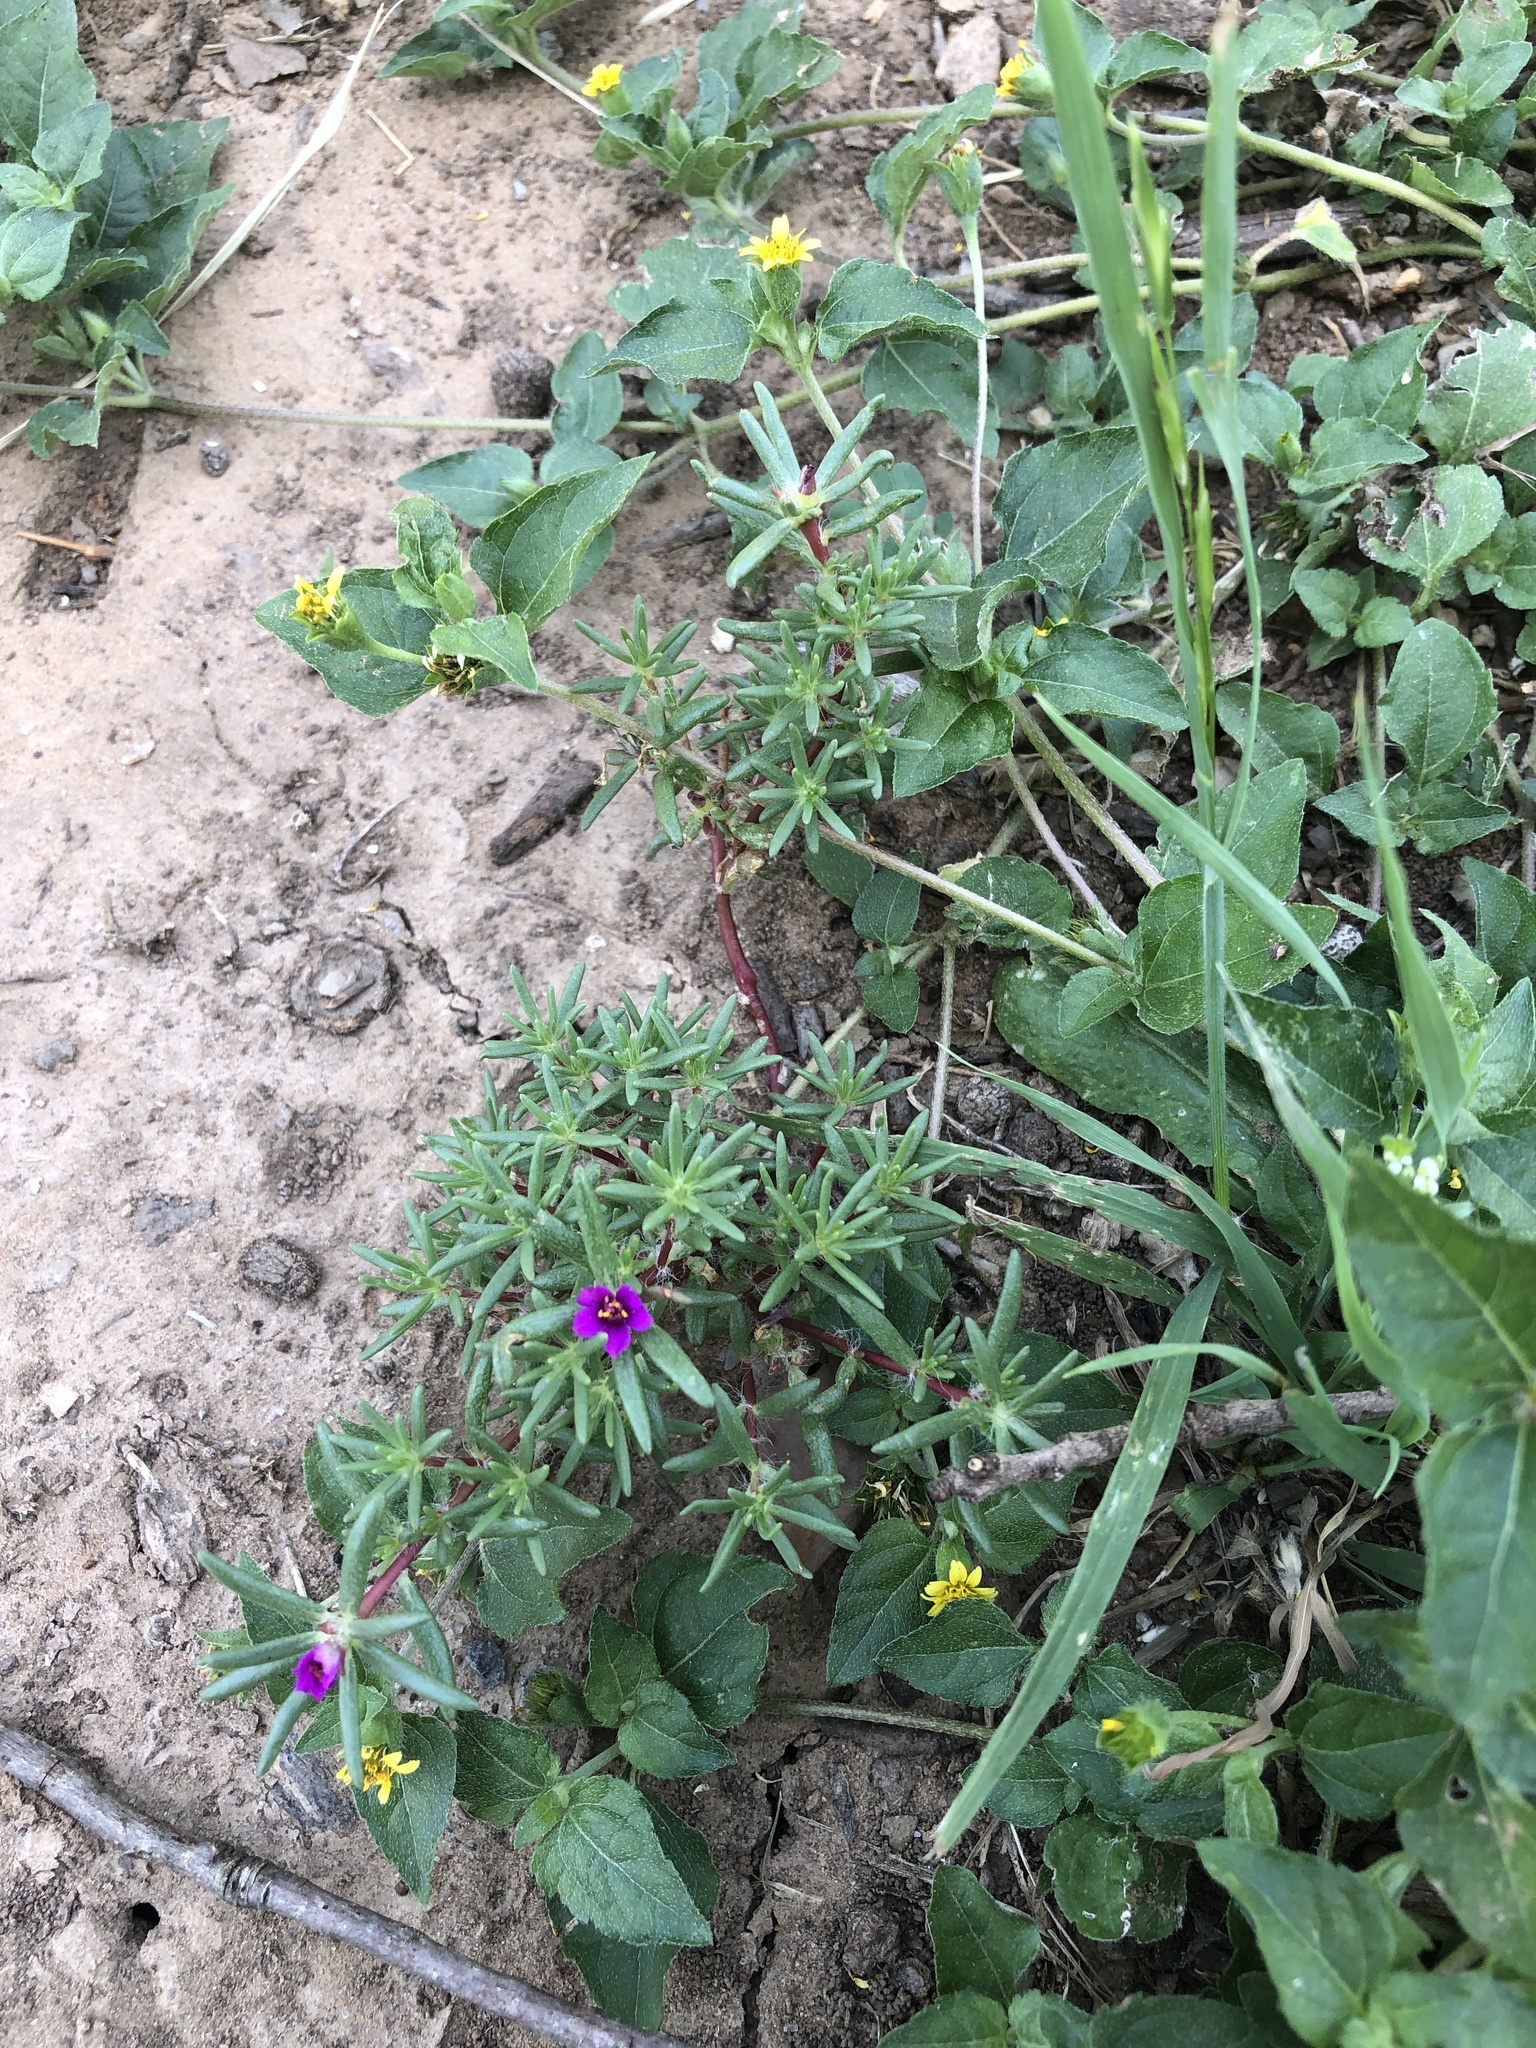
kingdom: Plantae
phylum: Tracheophyta
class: Magnoliopsida
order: Caryophyllales
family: Portulacaceae
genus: Portulaca
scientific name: Portulaca pilosa
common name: Kiss me quick
